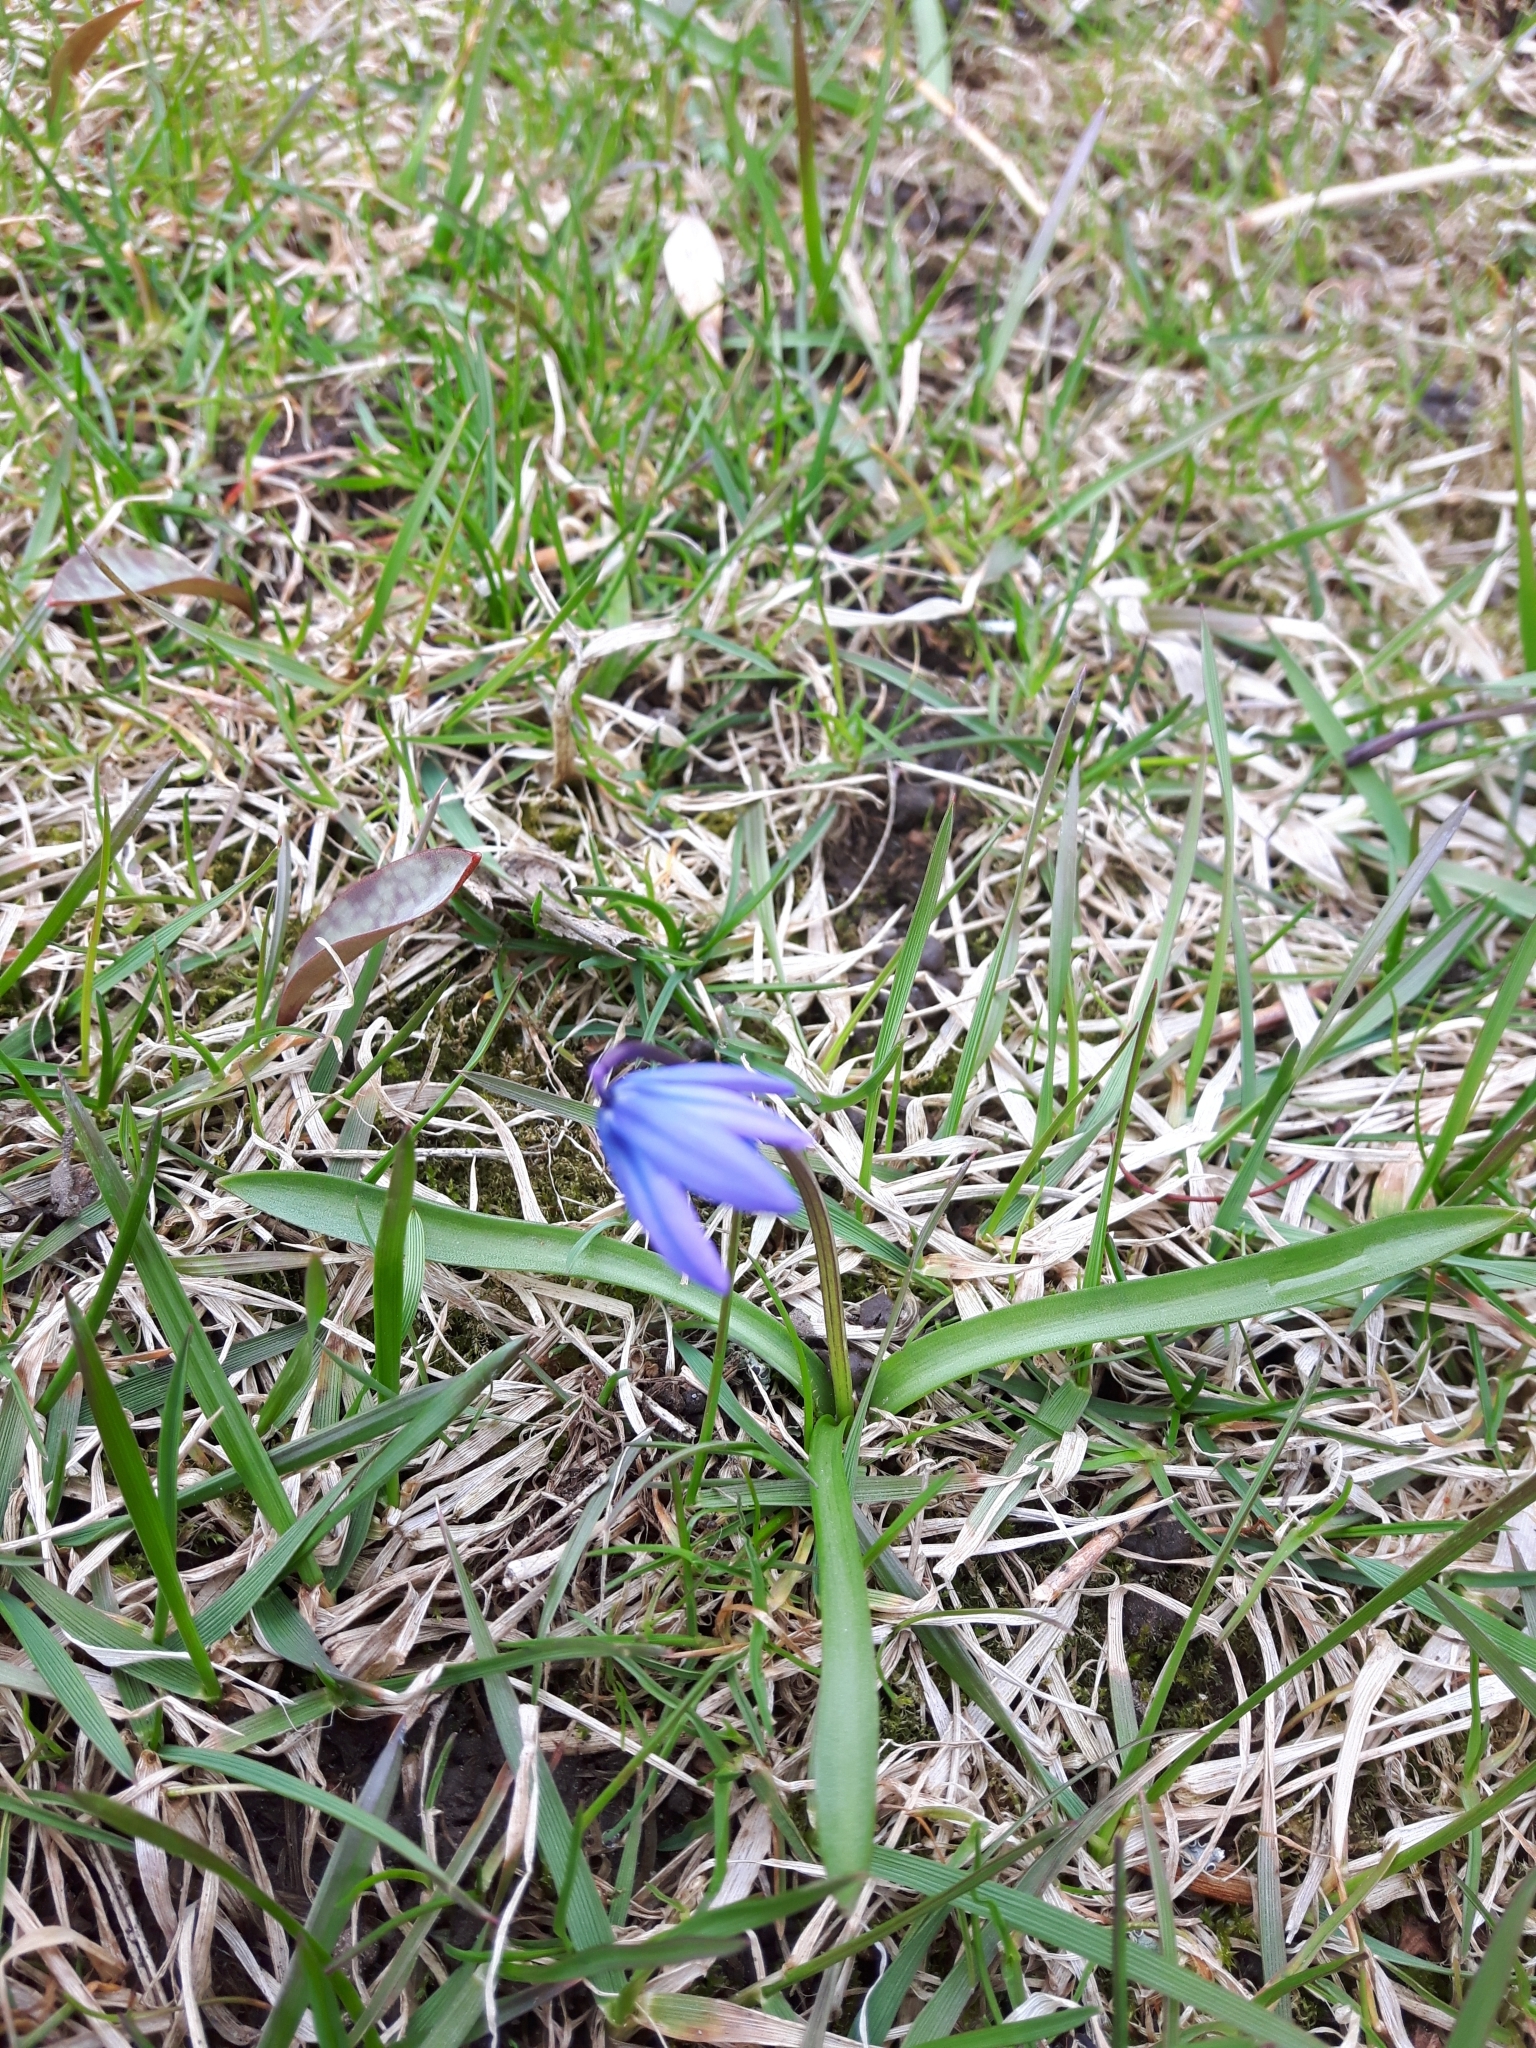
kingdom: Plantae
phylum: Tracheophyta
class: Liliopsida
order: Asparagales
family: Asparagaceae
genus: Scilla
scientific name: Scilla siberica
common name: Siberian squill
